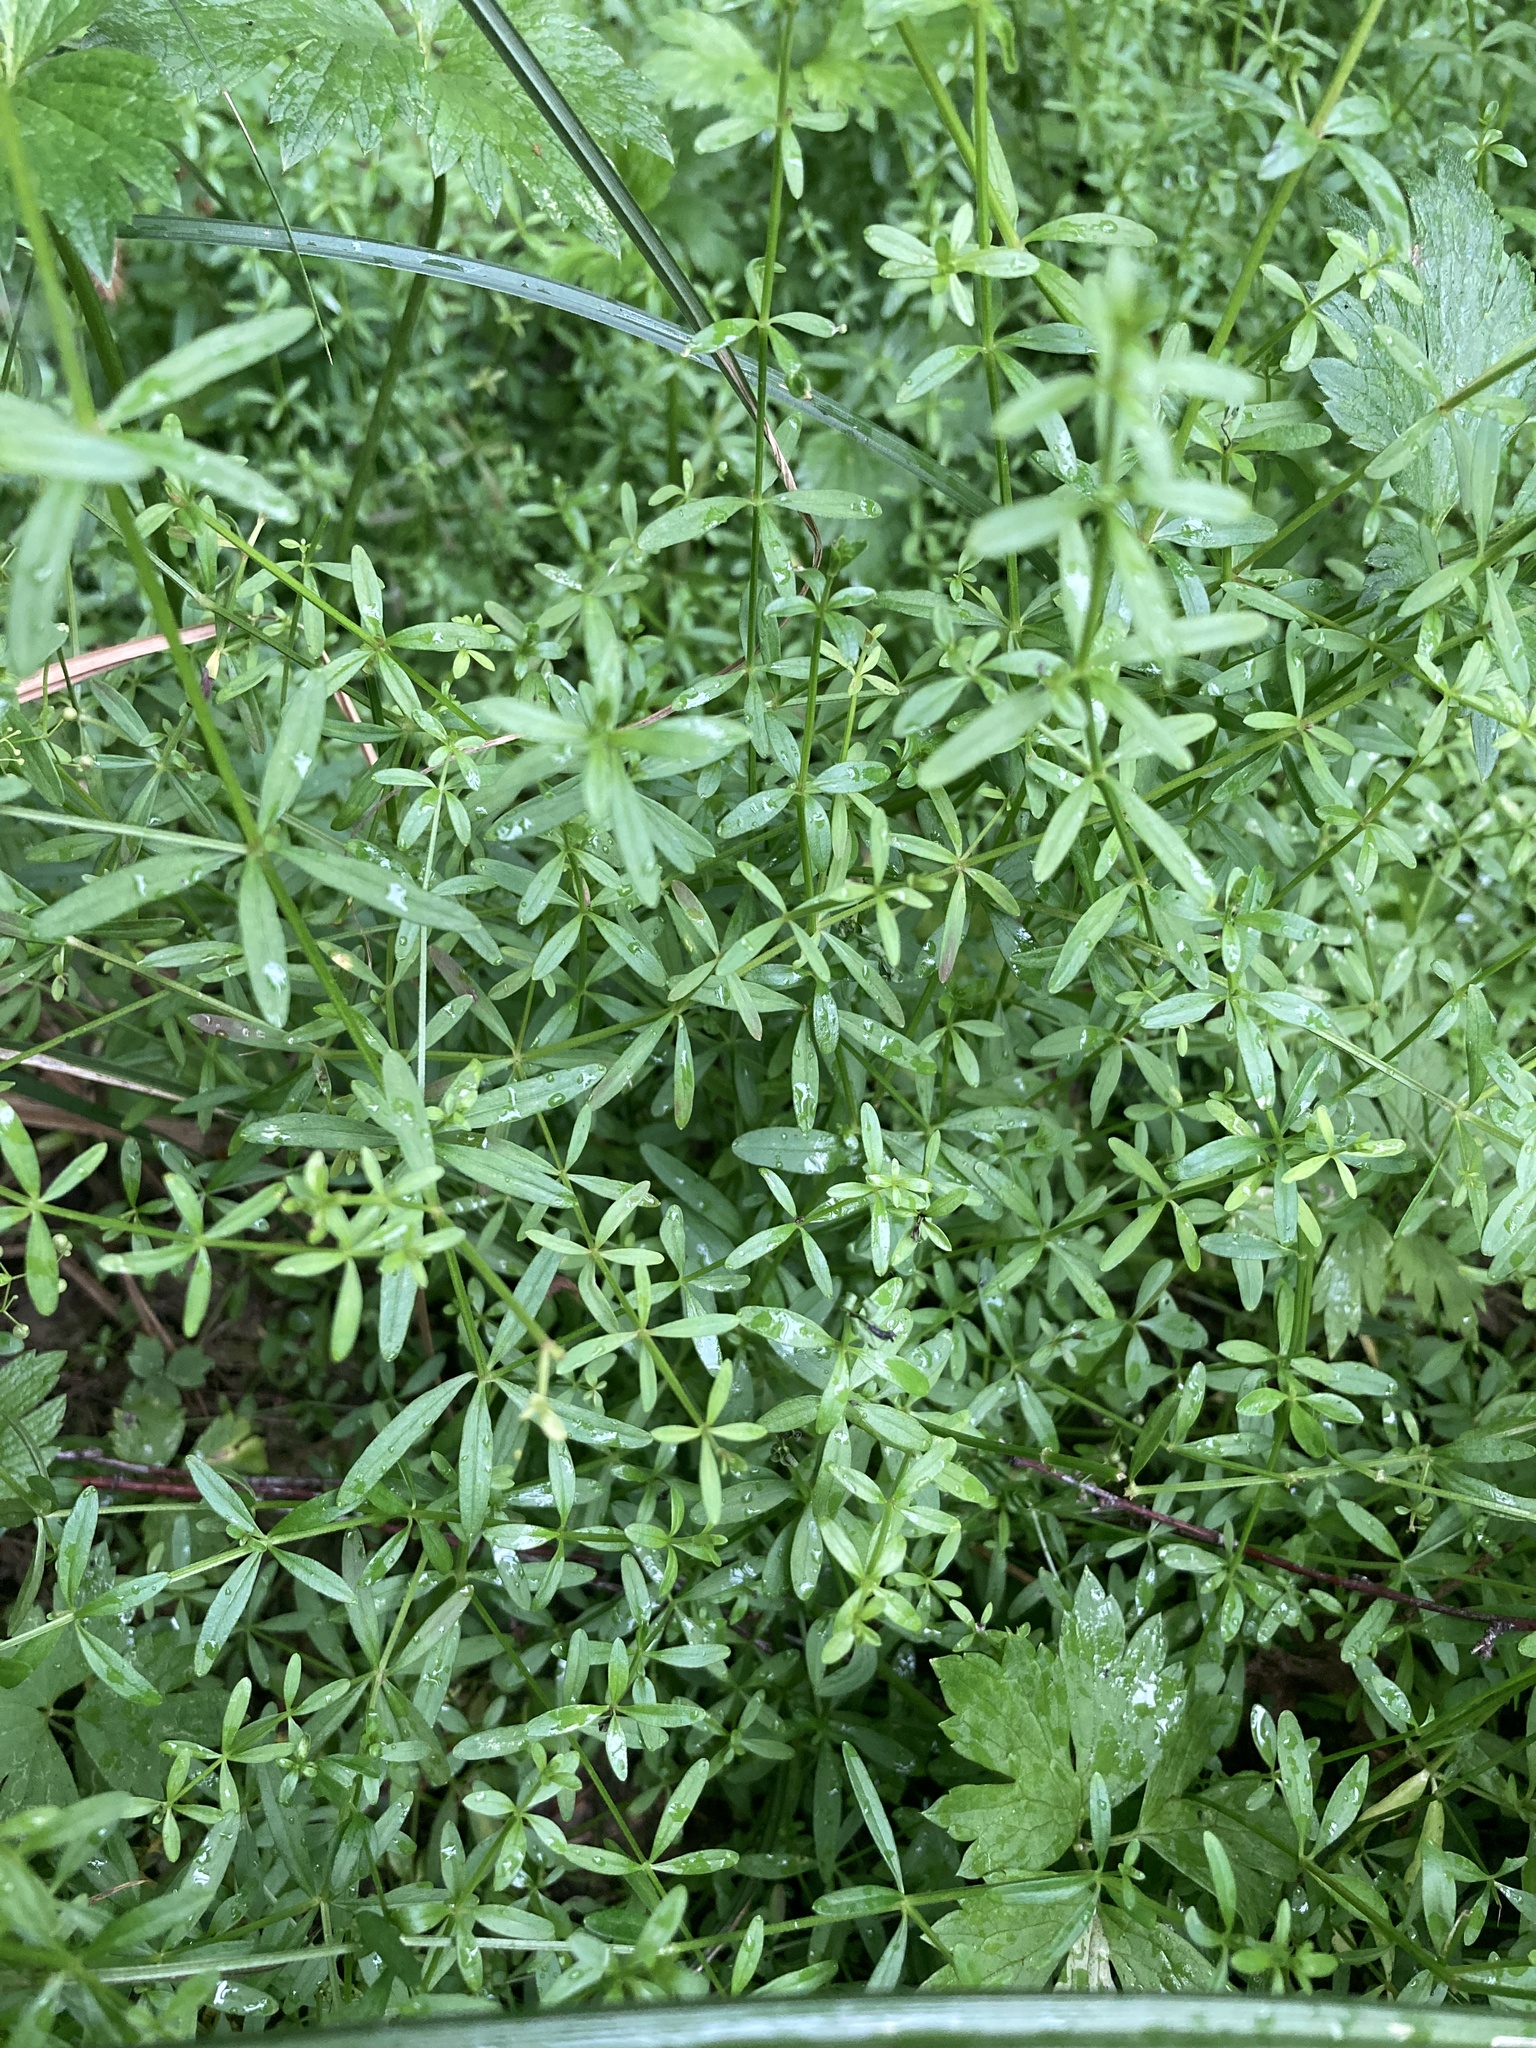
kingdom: Plantae
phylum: Tracheophyta
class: Magnoliopsida
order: Gentianales
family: Rubiaceae
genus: Galium
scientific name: Galium palustre
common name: Common marsh-bedstraw
